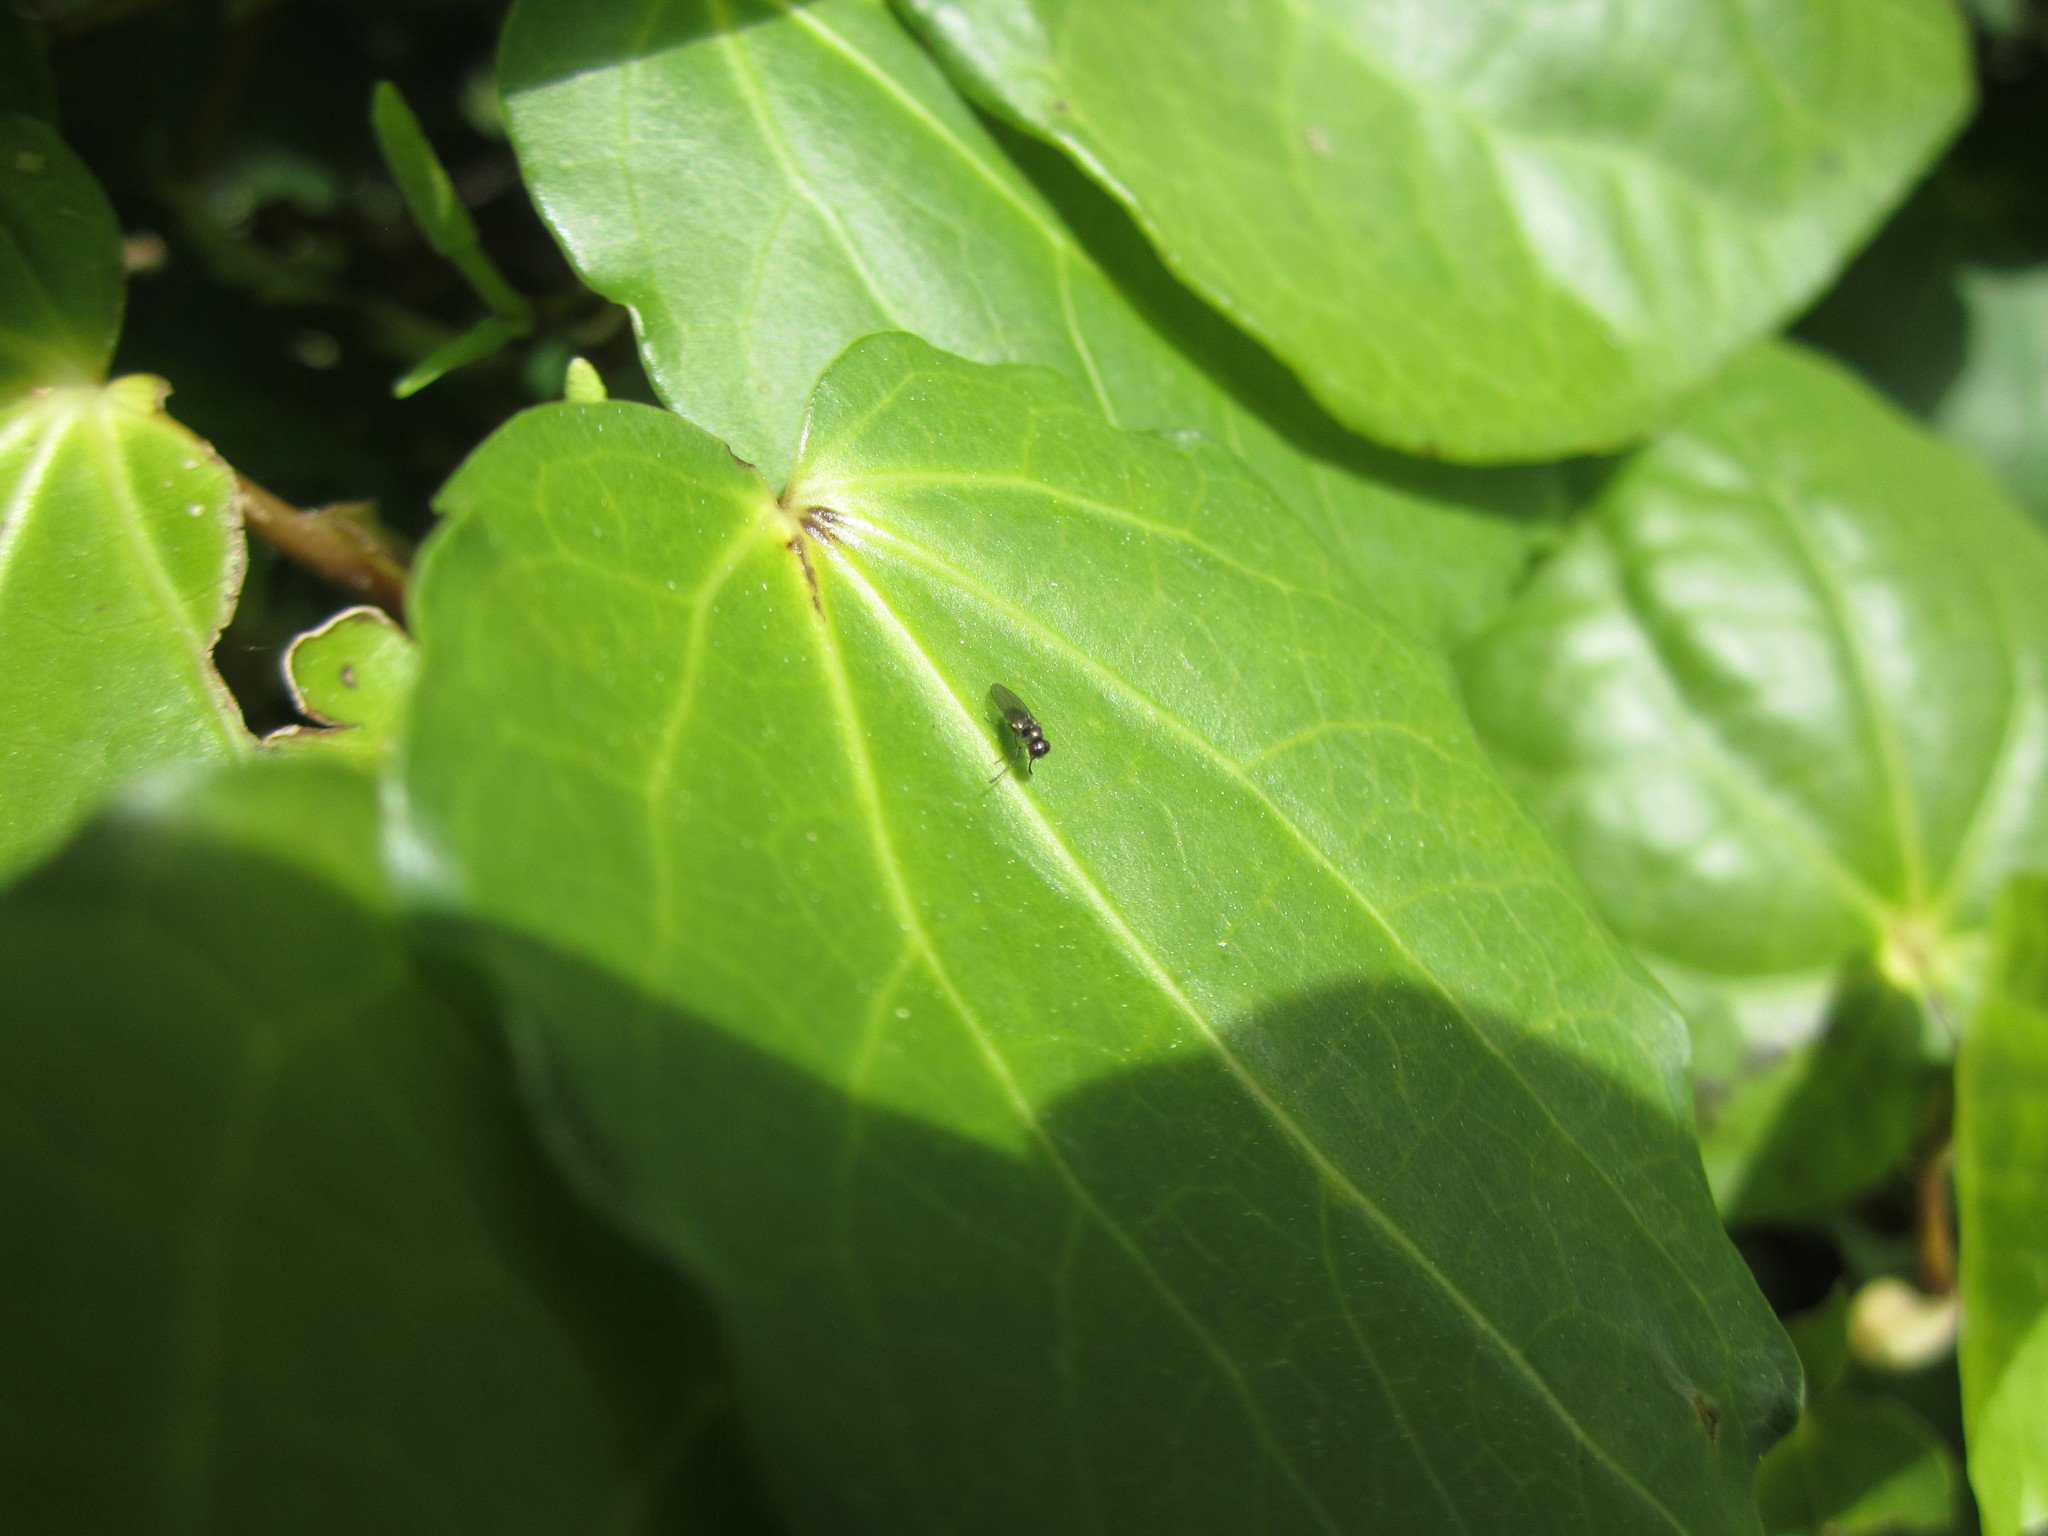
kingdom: Animalia
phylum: Arthropoda
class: Insecta
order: Diptera
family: Ephydridae
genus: Hydrellia
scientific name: Hydrellia tritici
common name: Shore fly
